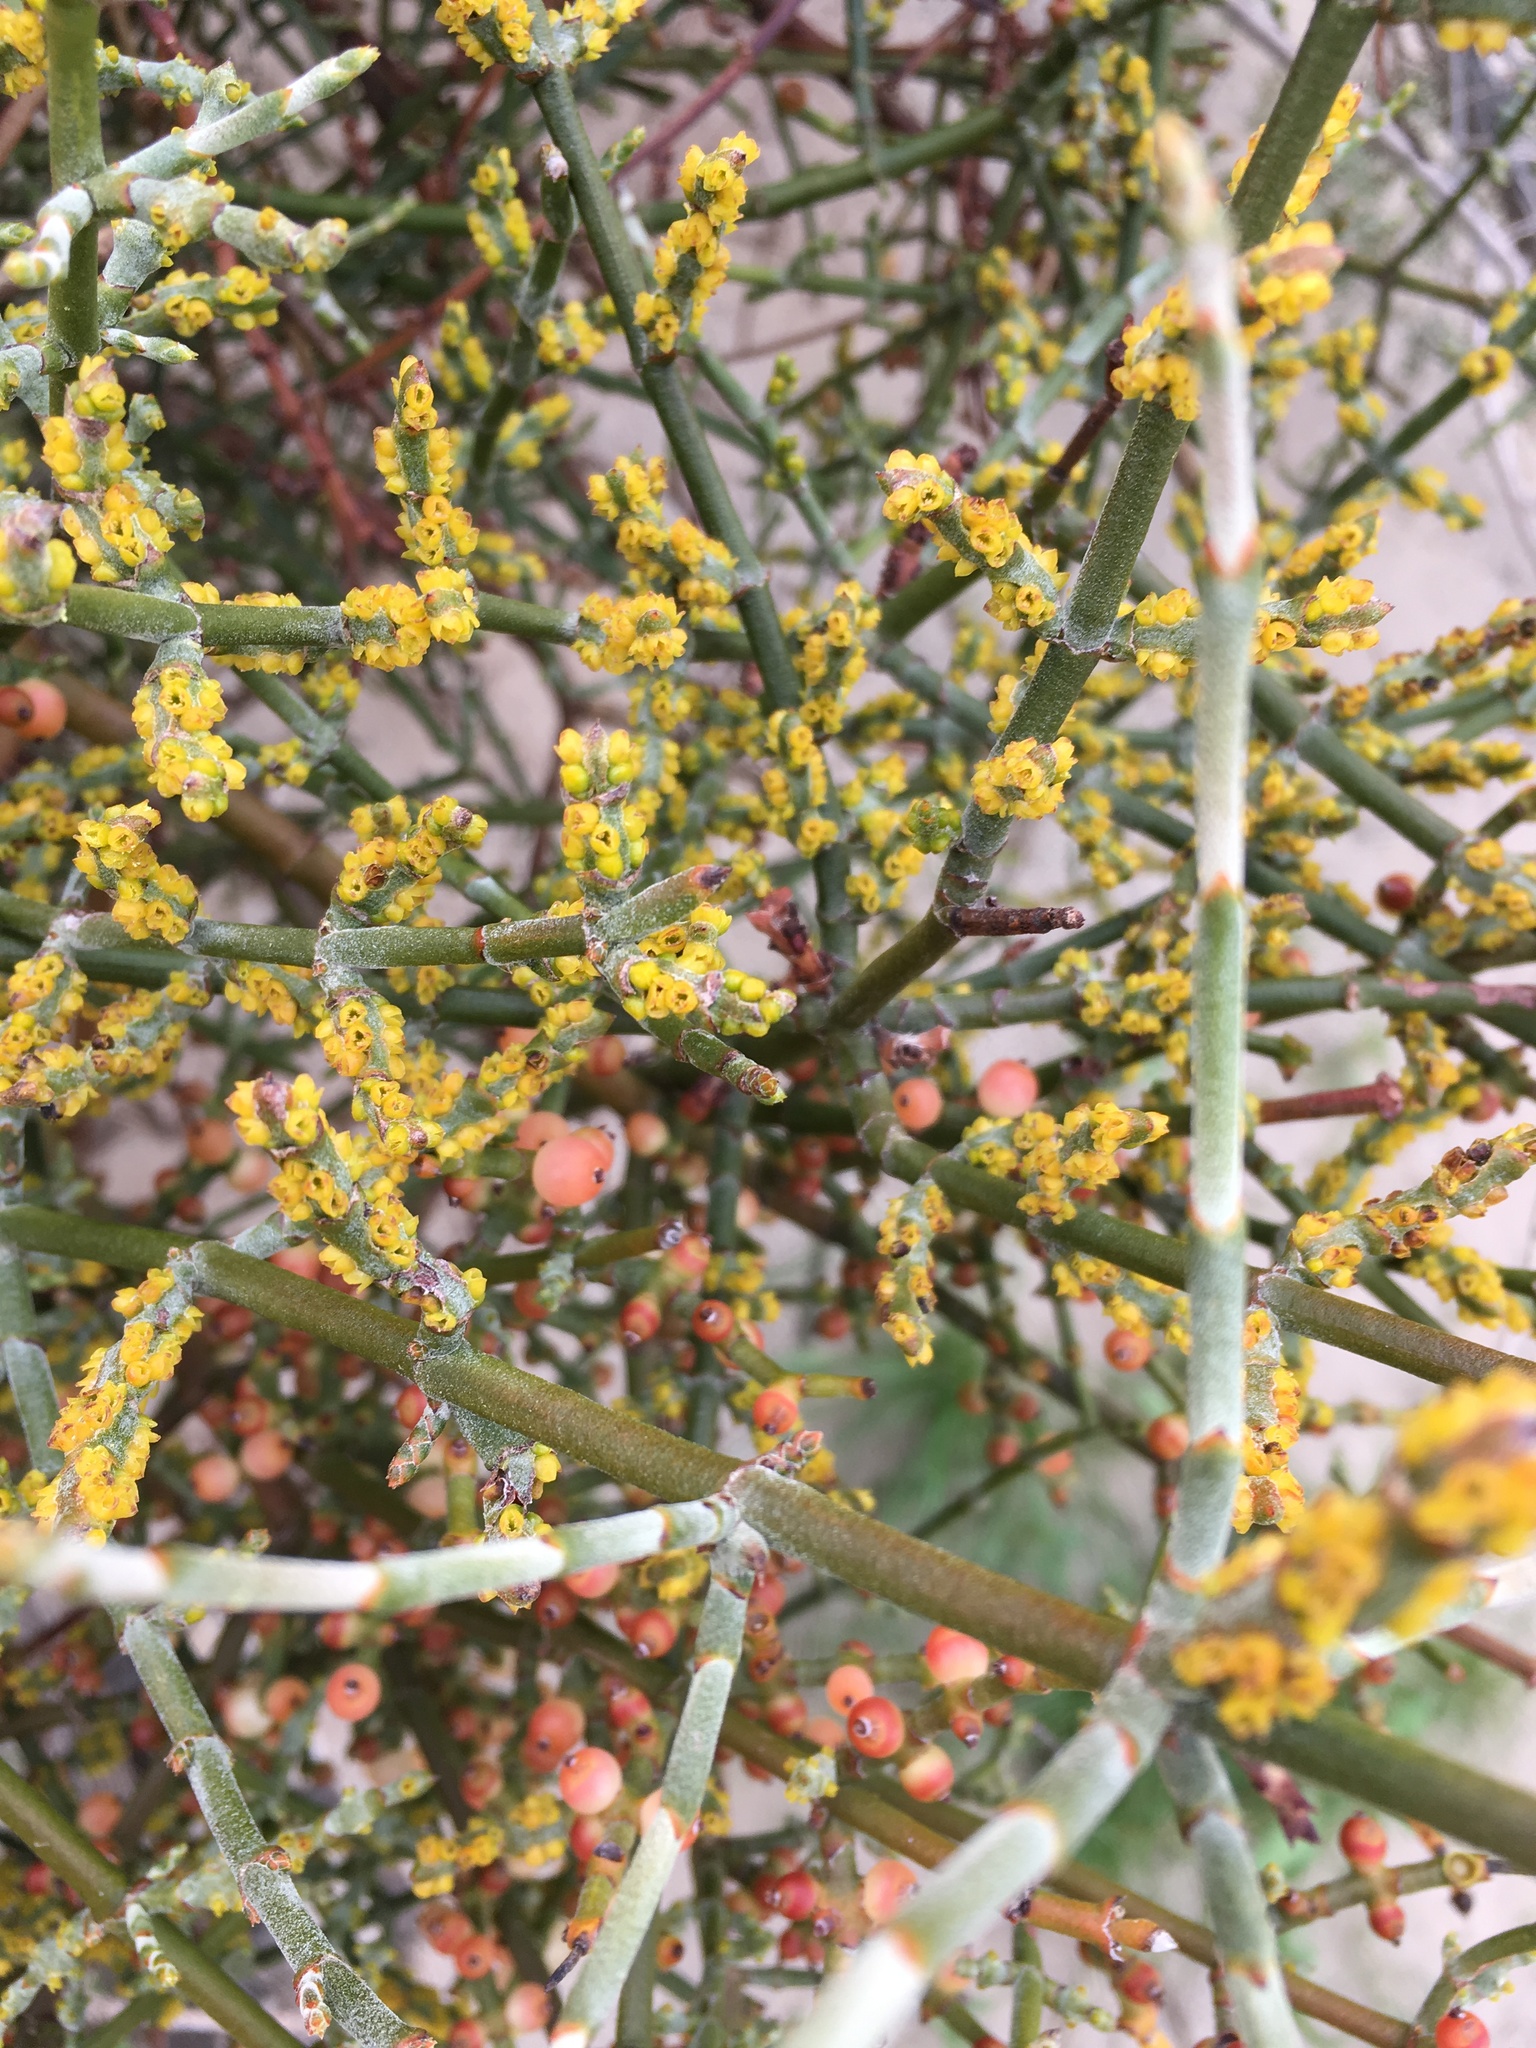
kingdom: Plantae
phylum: Tracheophyta
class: Magnoliopsida
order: Santalales
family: Viscaceae
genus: Phoradendron
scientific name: Phoradendron californicum
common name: Acacia mistletoe
